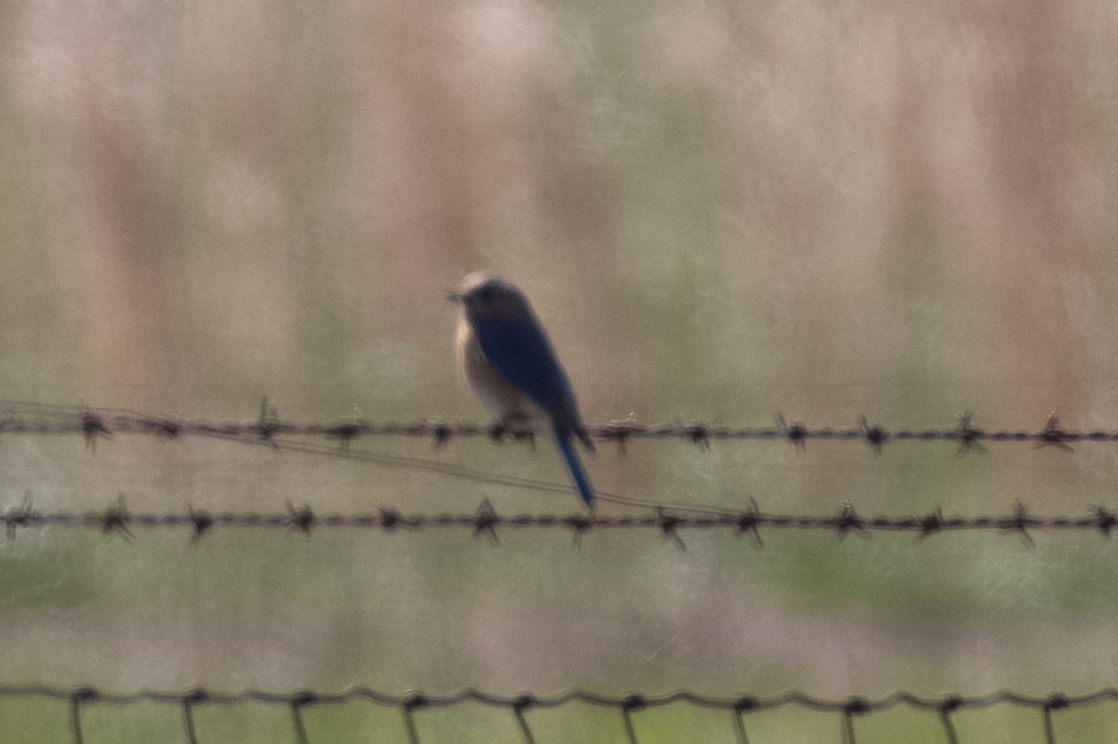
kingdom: Animalia
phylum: Chordata
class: Aves
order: Passeriformes
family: Turdidae
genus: Sialia
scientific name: Sialia sialis
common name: Eastern bluebird
